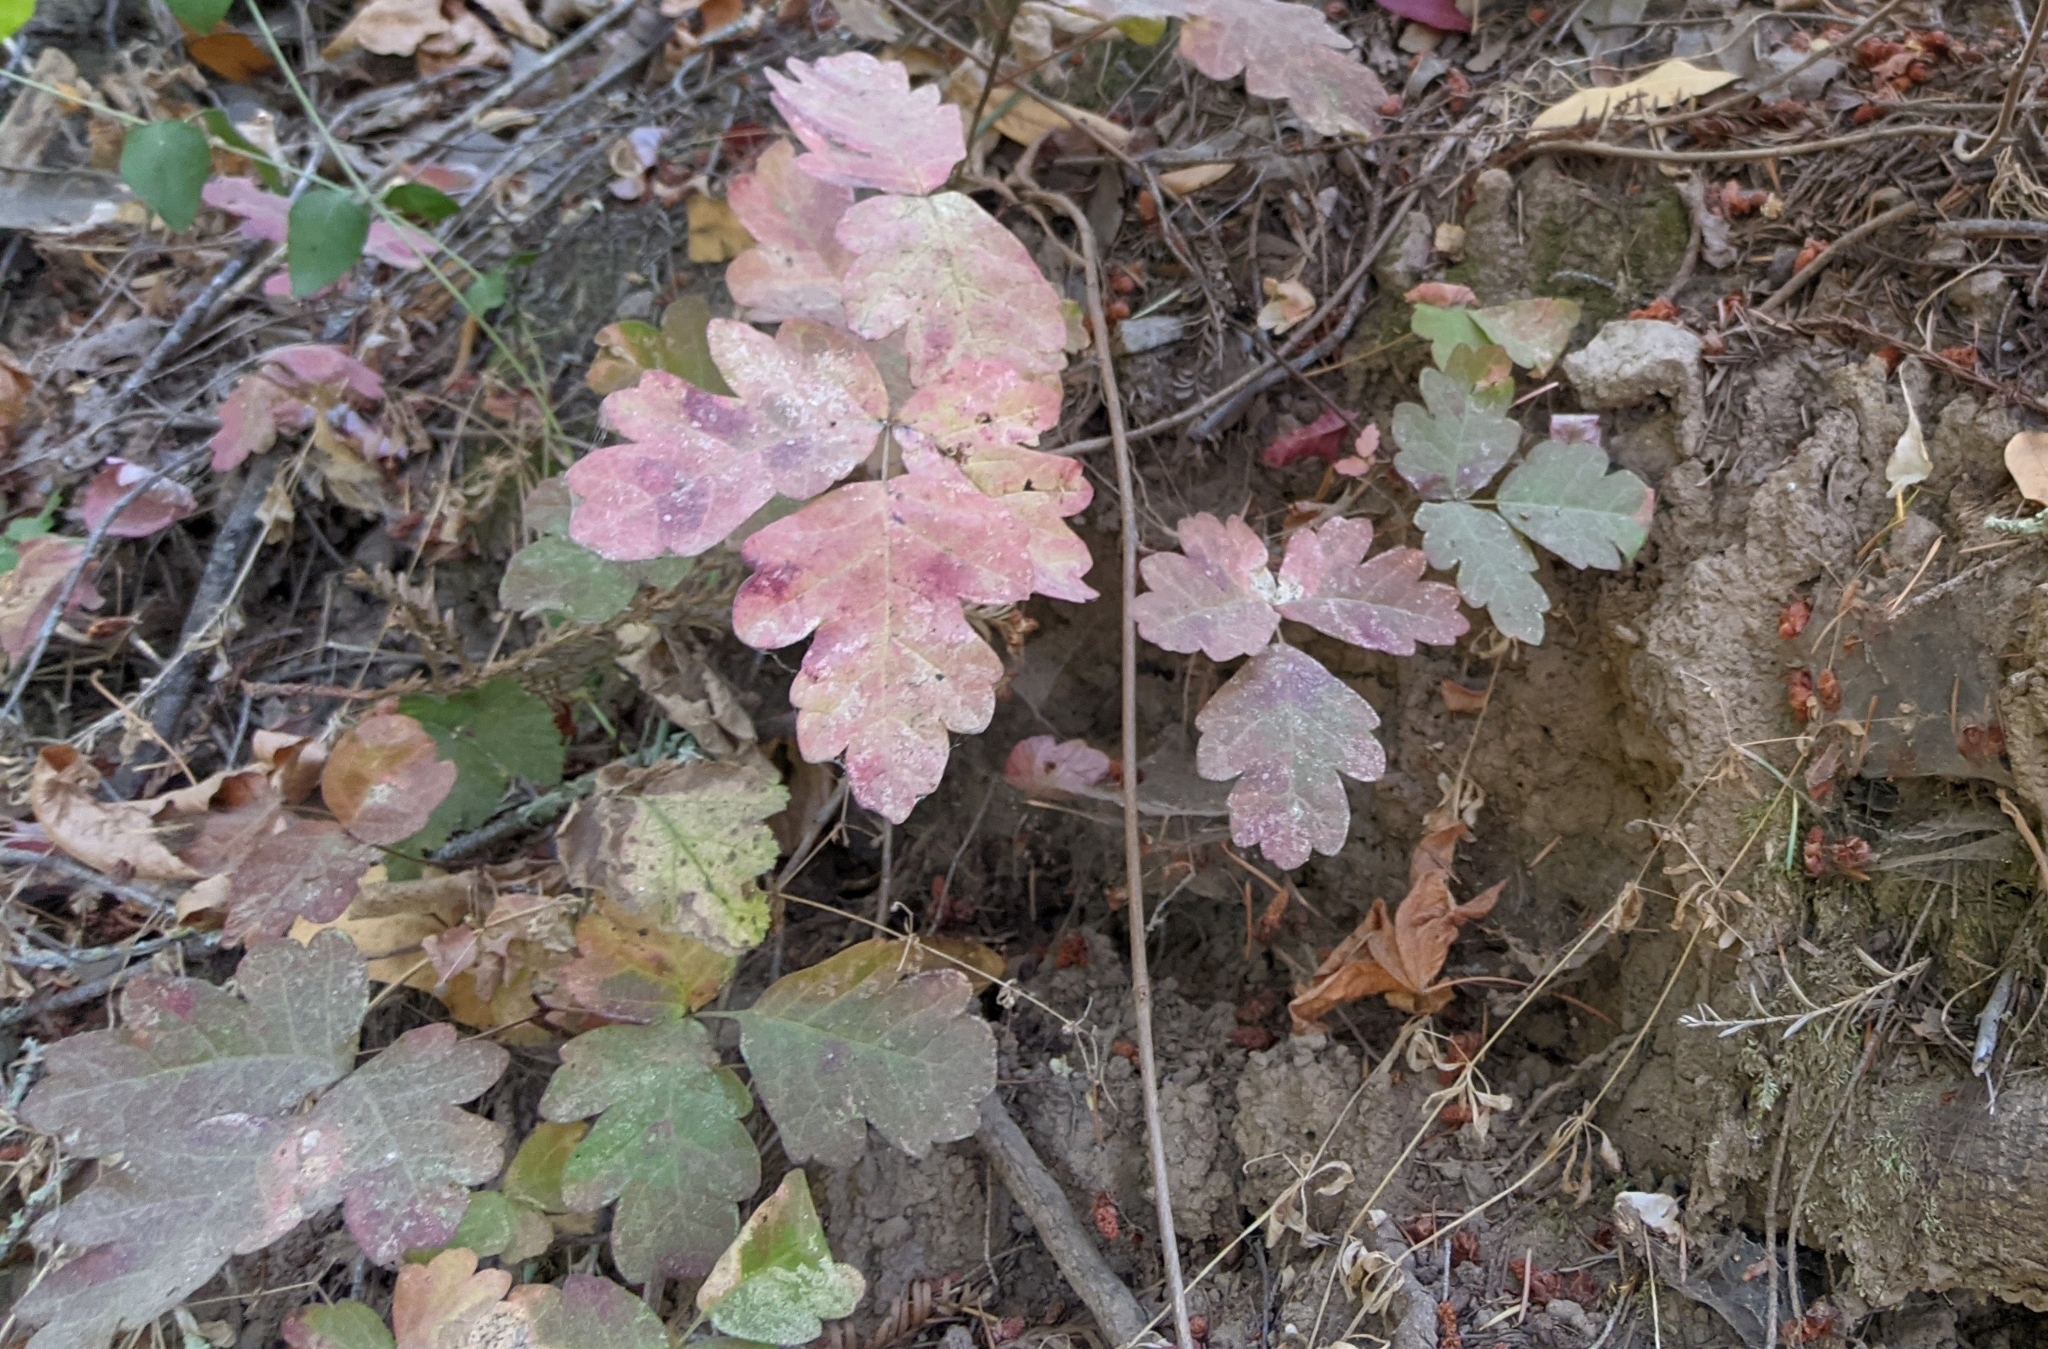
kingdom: Plantae
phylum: Tracheophyta
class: Magnoliopsida
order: Sapindales
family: Anacardiaceae
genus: Toxicodendron
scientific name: Toxicodendron diversilobum
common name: Pacific poison-oak
